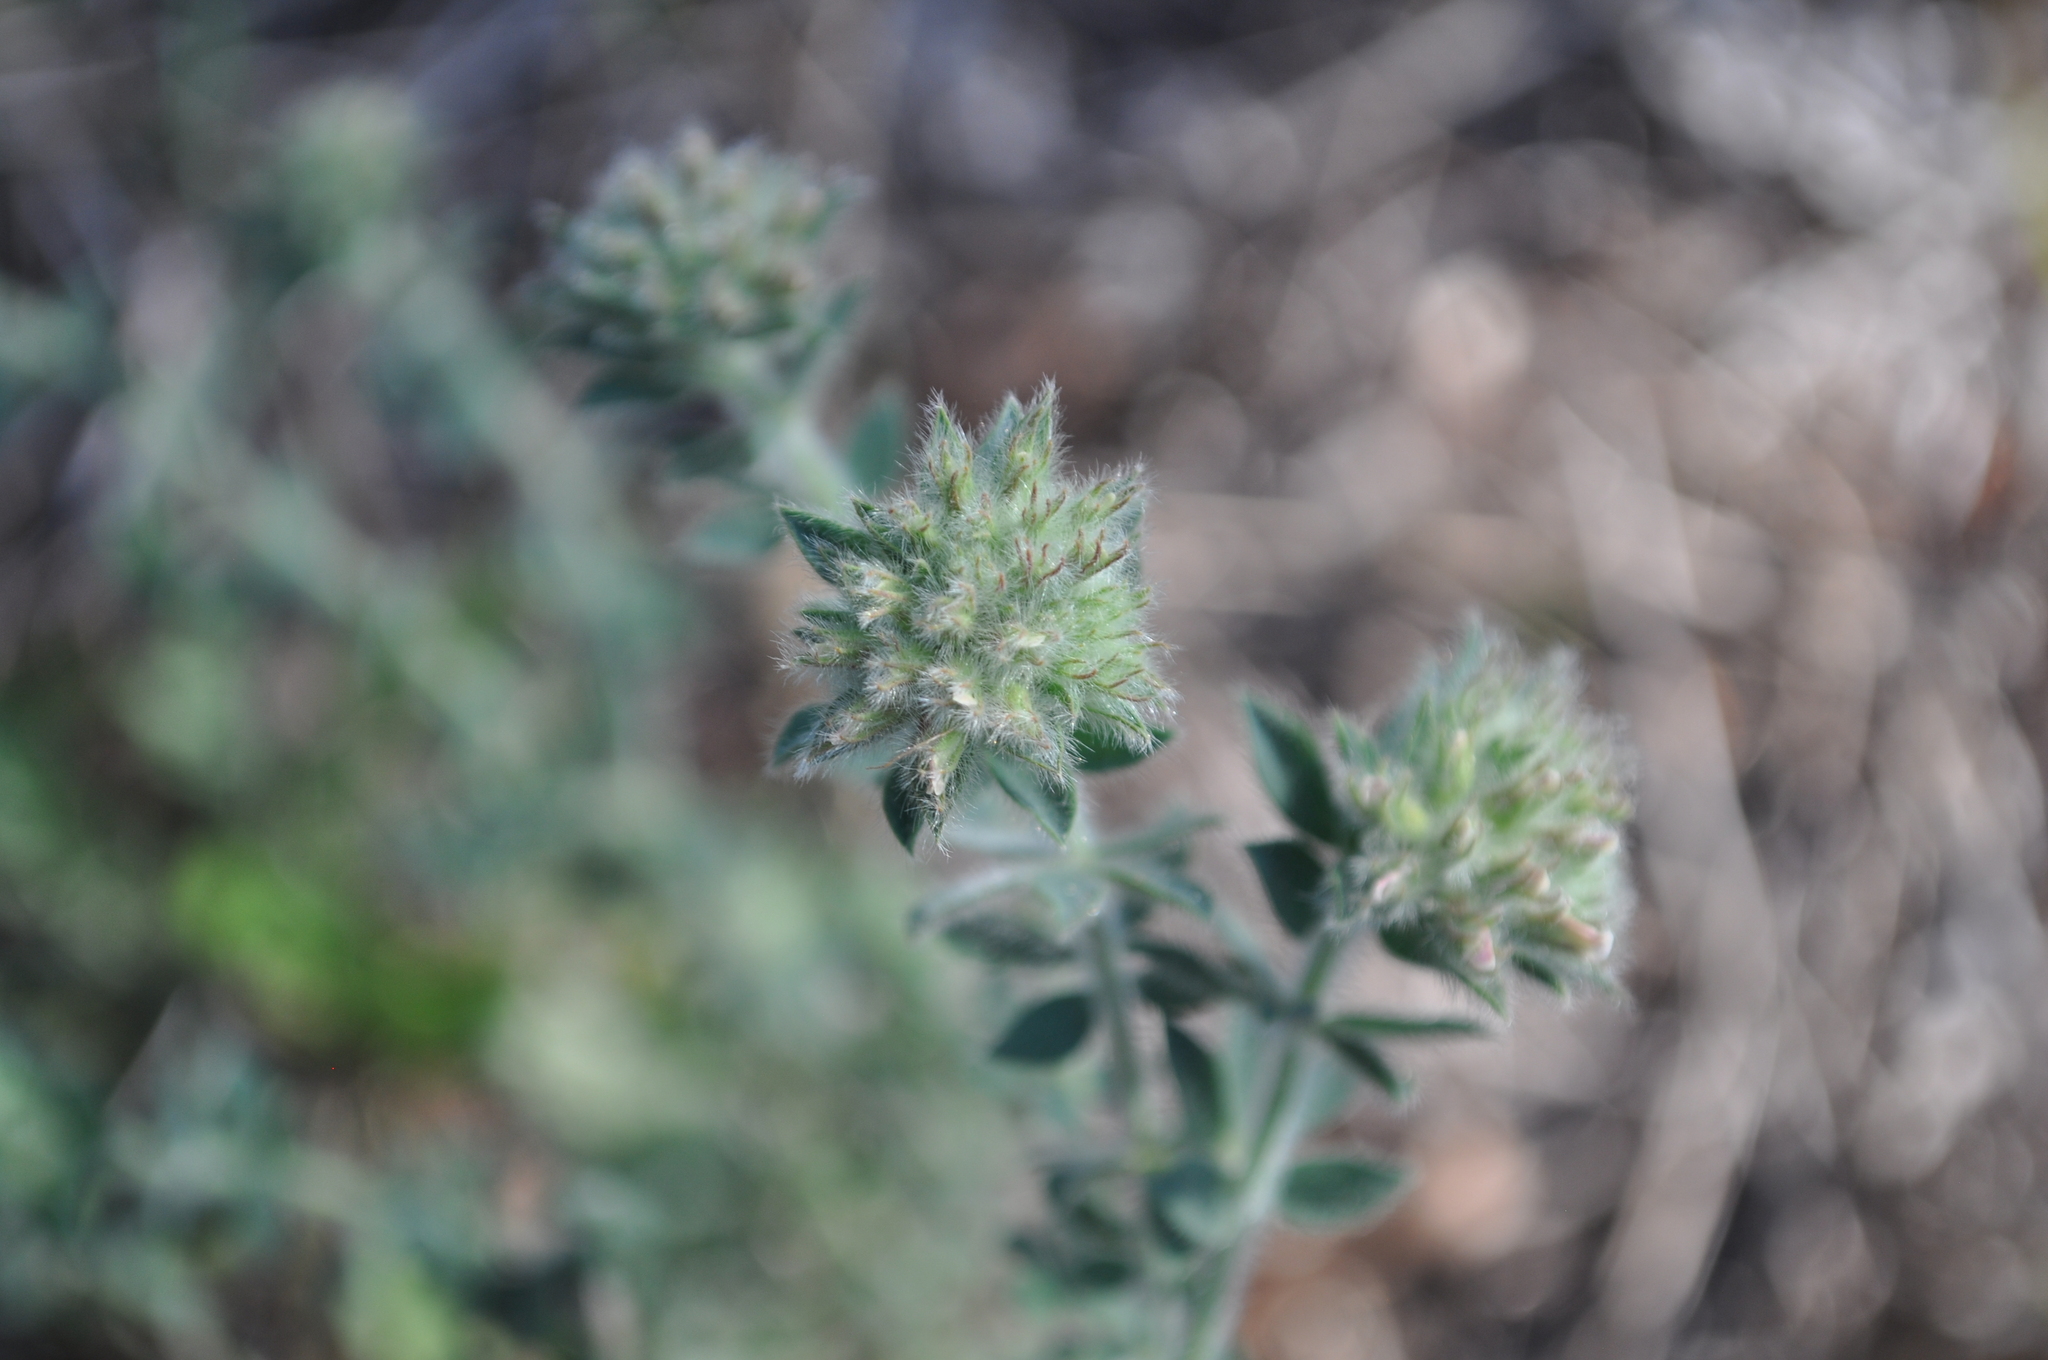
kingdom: Plantae
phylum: Tracheophyta
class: Magnoliopsida
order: Fabales
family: Fabaceae
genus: Lotus
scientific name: Lotus hirsutus
